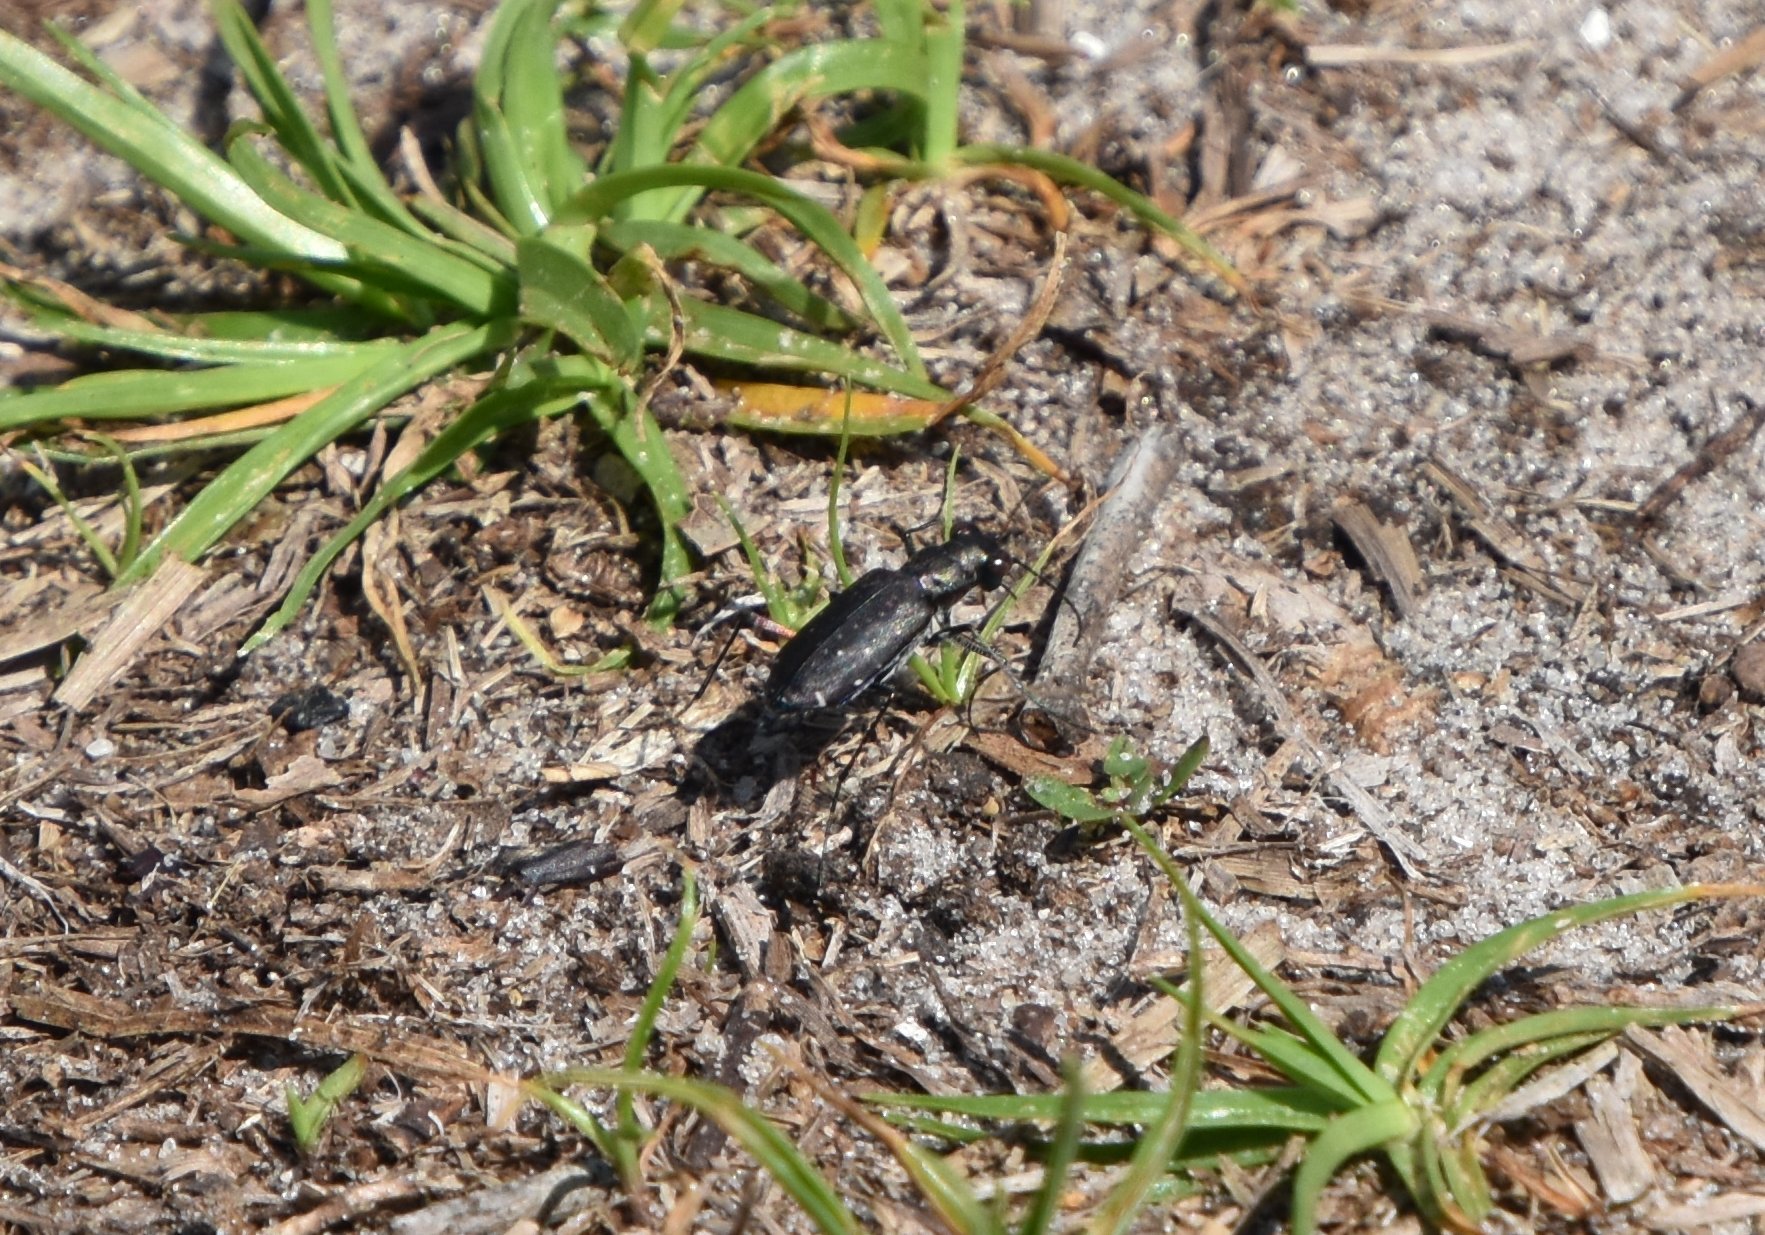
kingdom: Animalia
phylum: Arthropoda
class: Insecta
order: Coleoptera
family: Carabidae
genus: Cicindela
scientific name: Cicindela punctulata
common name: Punctured tiger beetle
